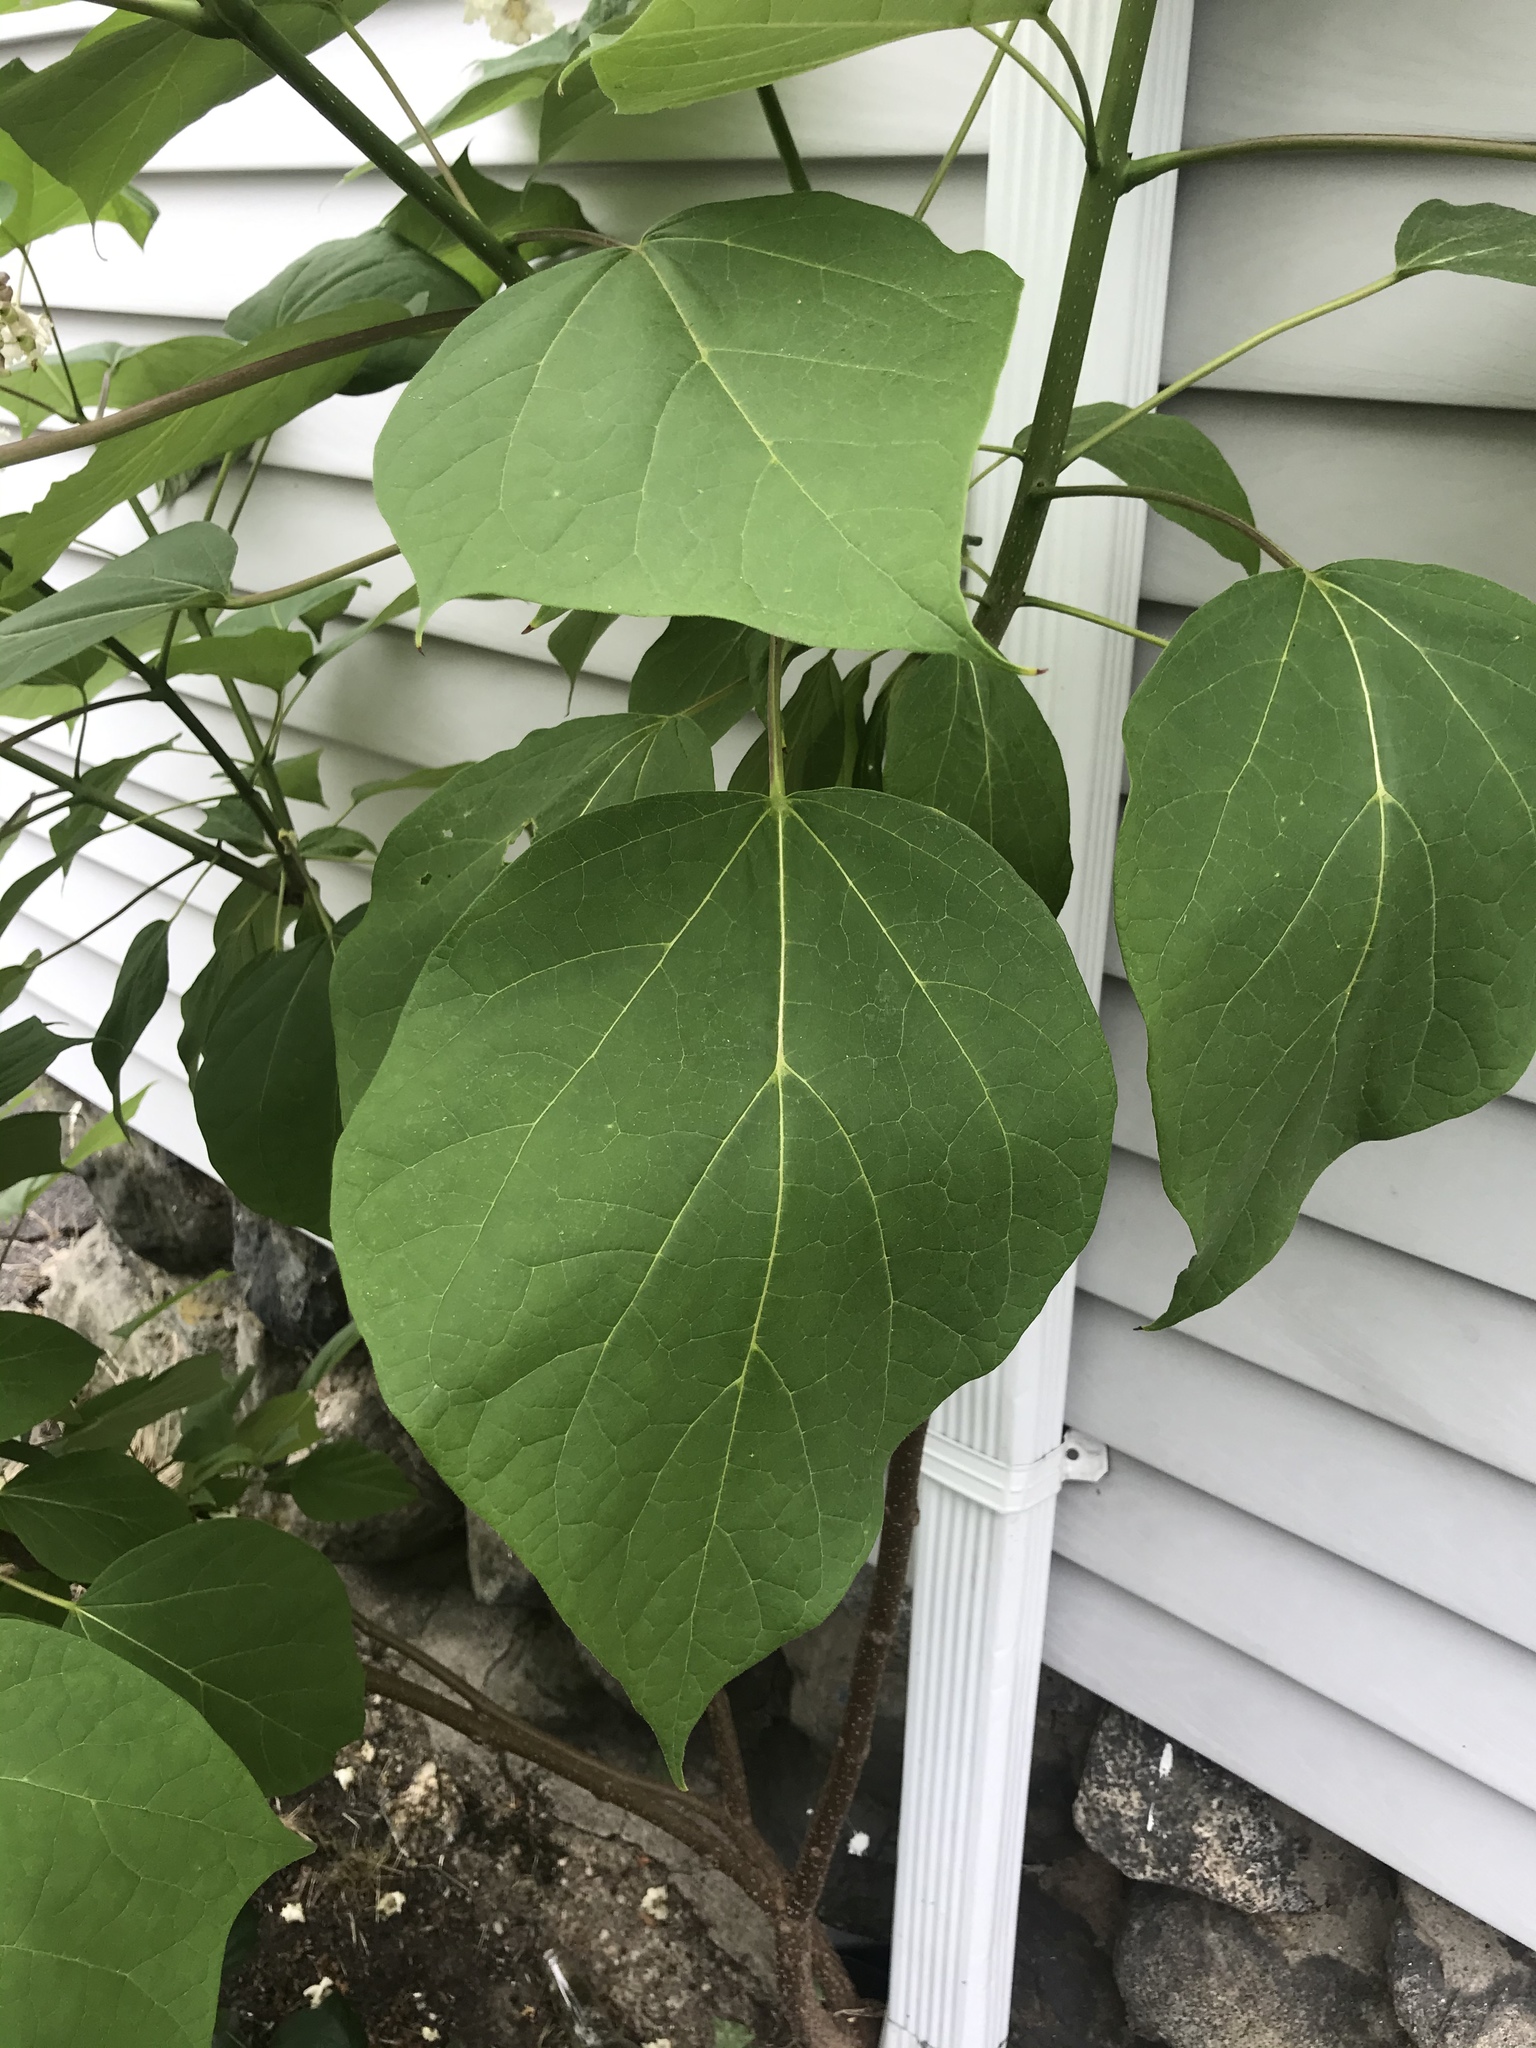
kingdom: Plantae
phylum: Tracheophyta
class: Magnoliopsida
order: Lamiales
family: Bignoniaceae
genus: Catalpa
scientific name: Catalpa speciosa
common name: Northern catalpa
